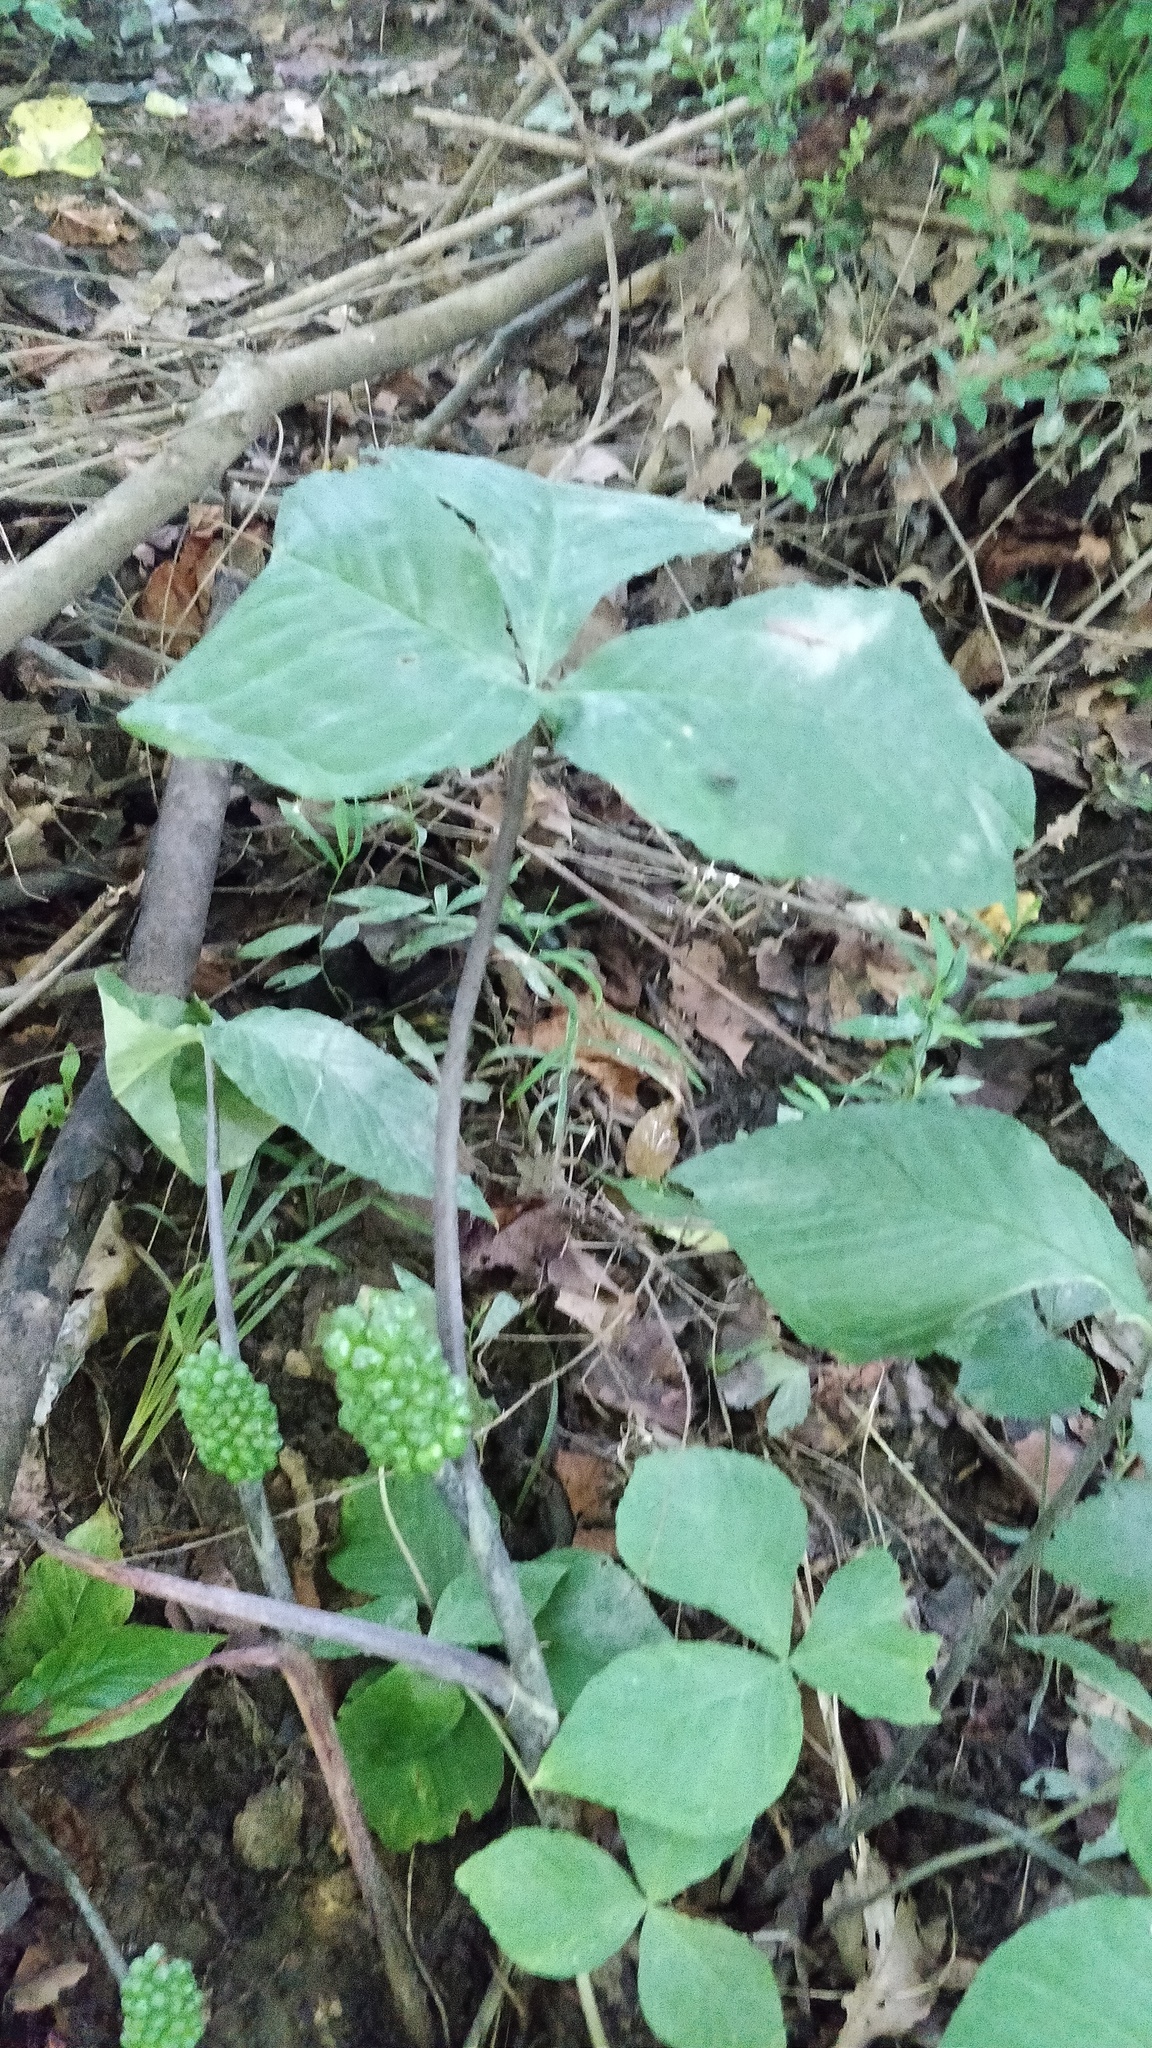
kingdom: Plantae
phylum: Tracheophyta
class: Liliopsida
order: Alismatales
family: Araceae
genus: Arisaema
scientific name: Arisaema triphyllum
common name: Jack-in-the-pulpit
